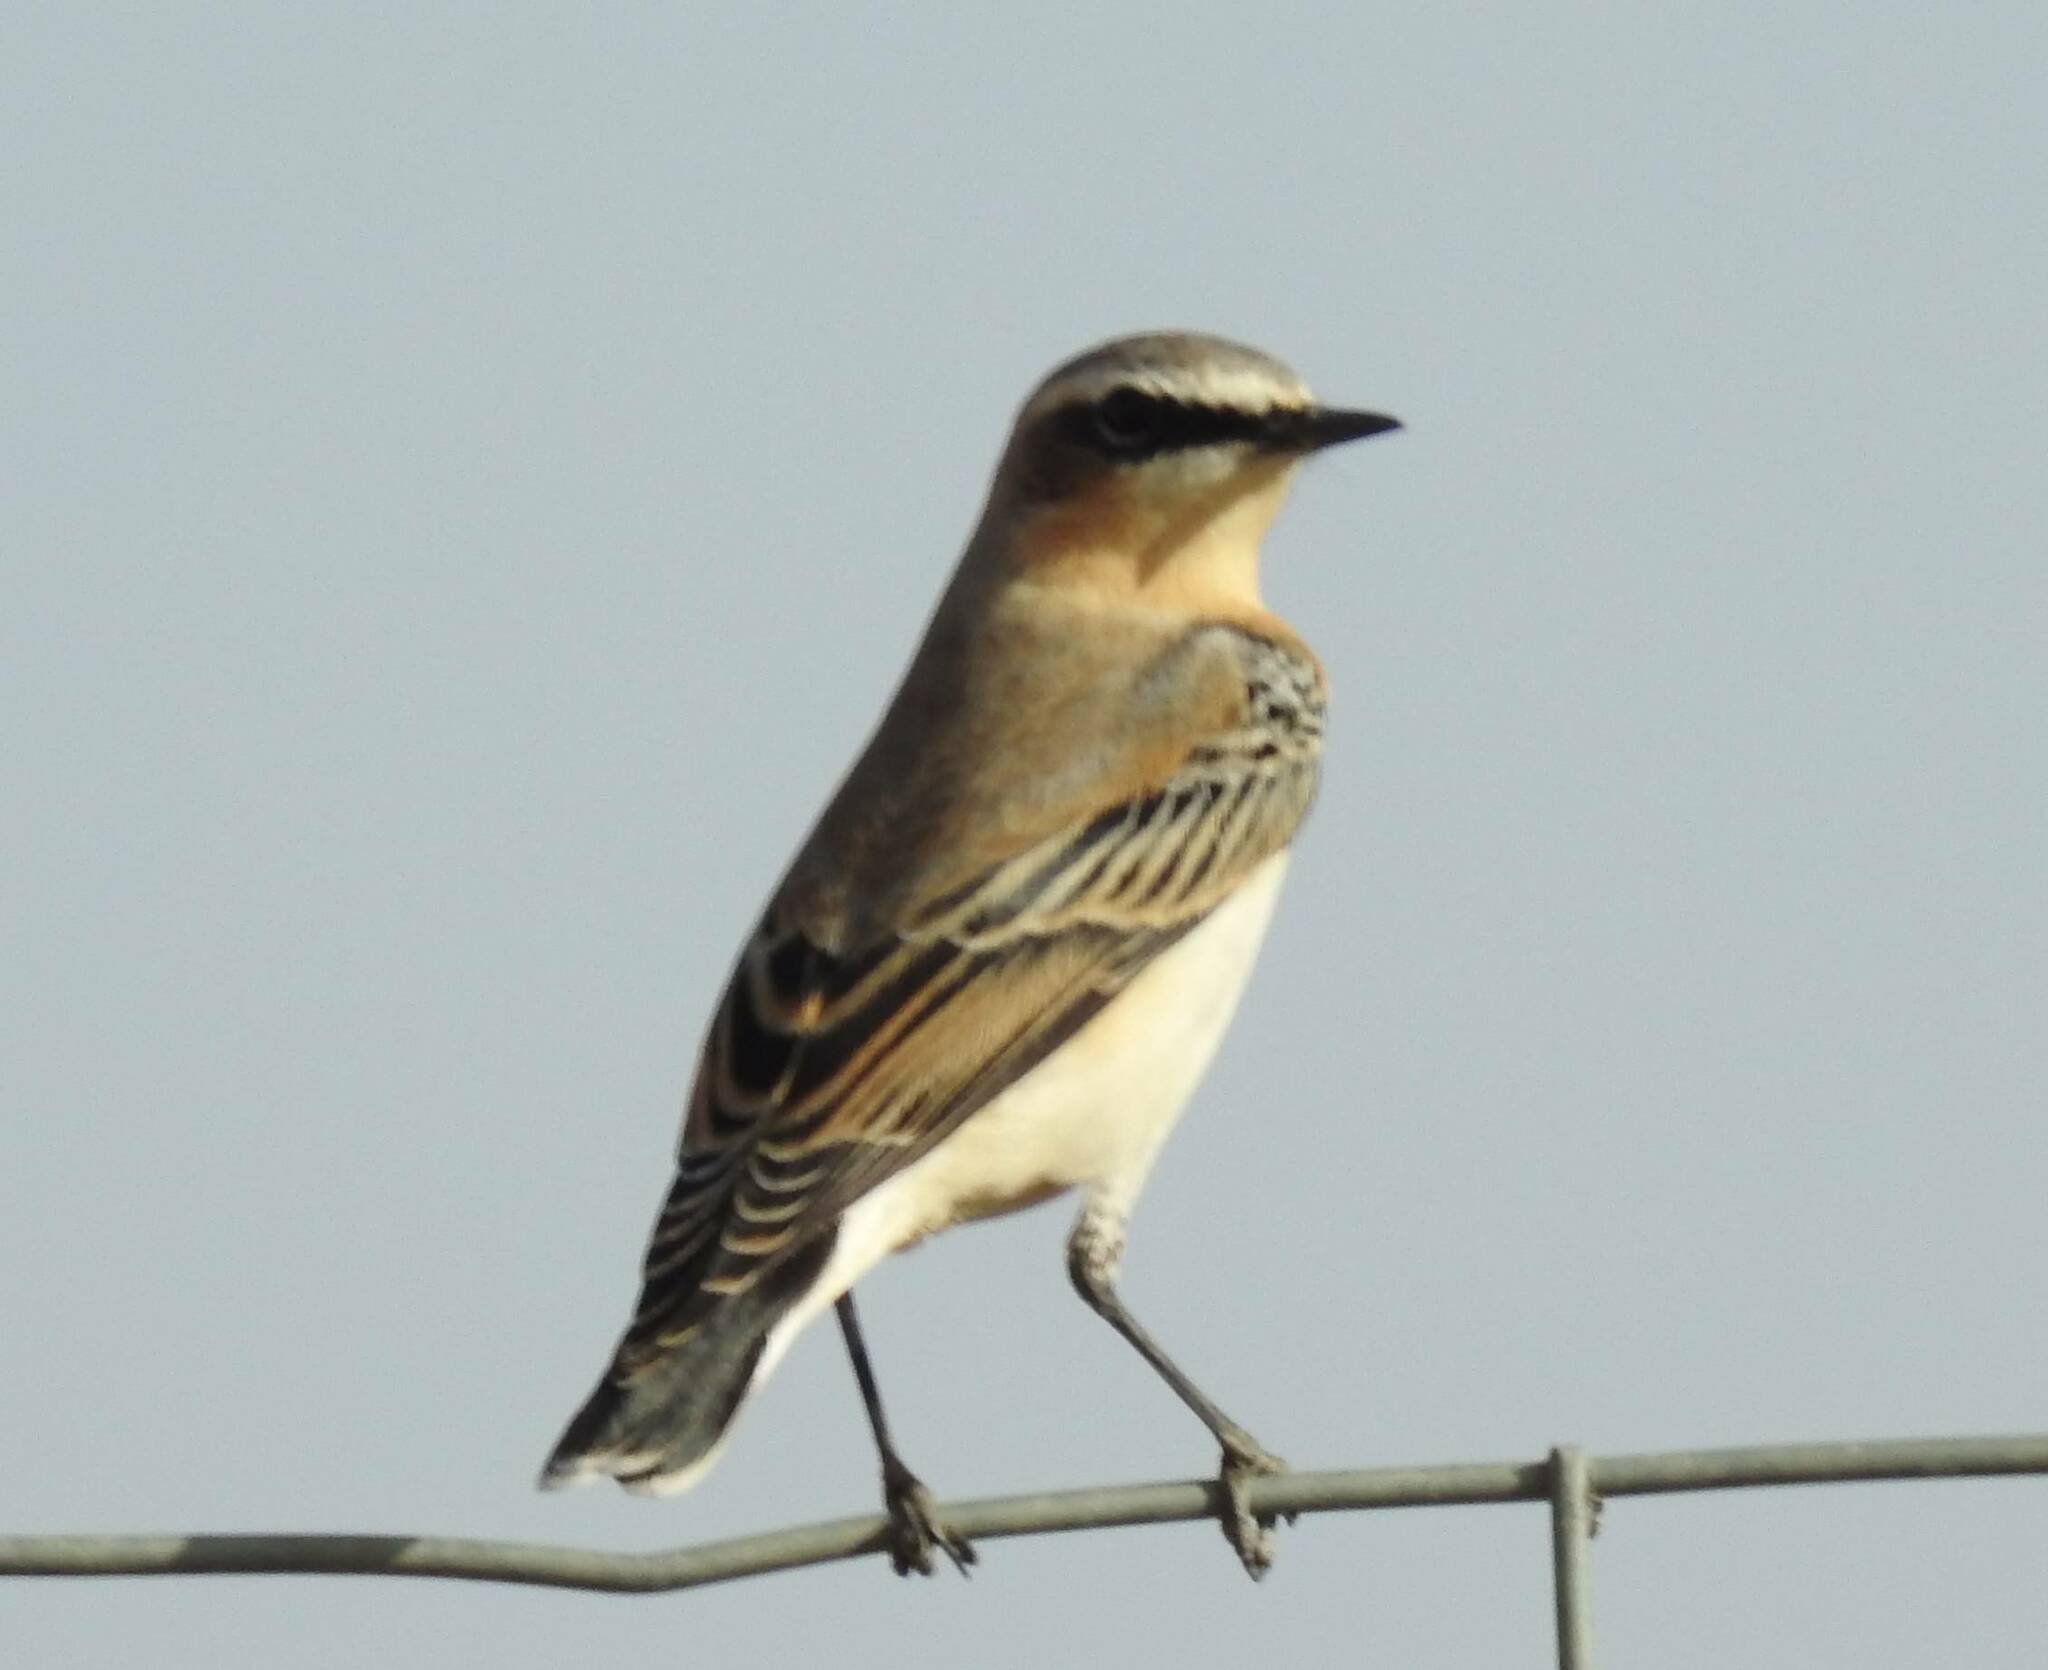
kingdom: Animalia
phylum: Chordata
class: Aves
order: Passeriformes
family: Muscicapidae
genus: Oenanthe
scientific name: Oenanthe oenanthe
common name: Northern wheatear
